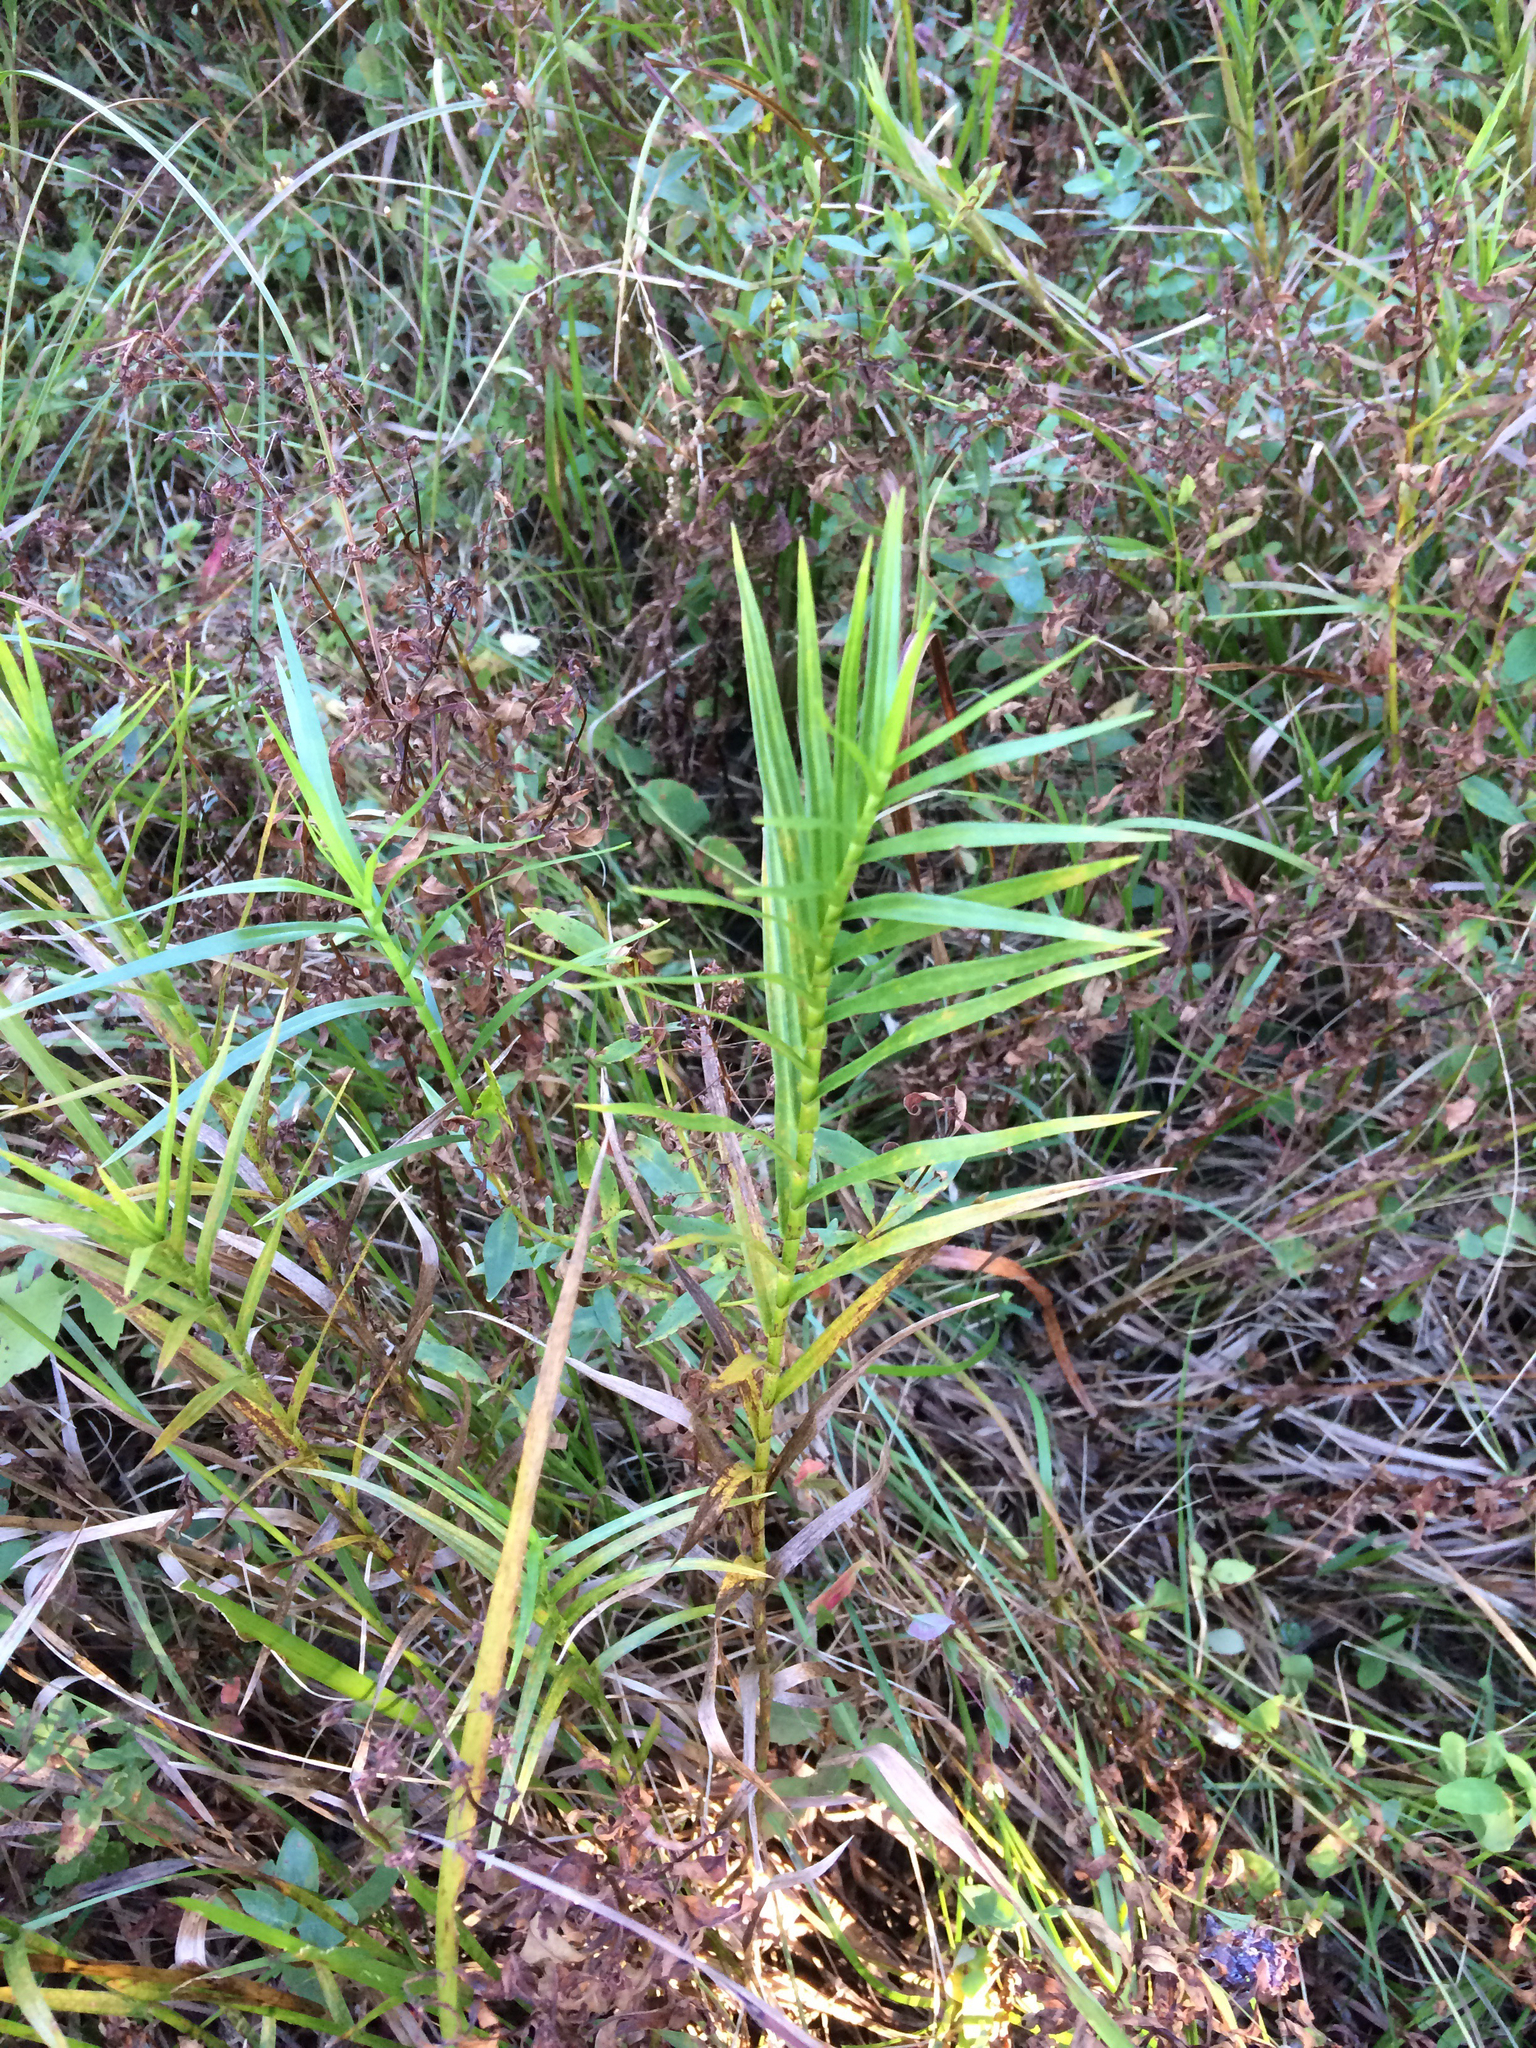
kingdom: Plantae
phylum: Tracheophyta
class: Liliopsida
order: Poales
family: Cyperaceae
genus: Dulichium
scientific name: Dulichium arundinaceum
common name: Three-way sedge
